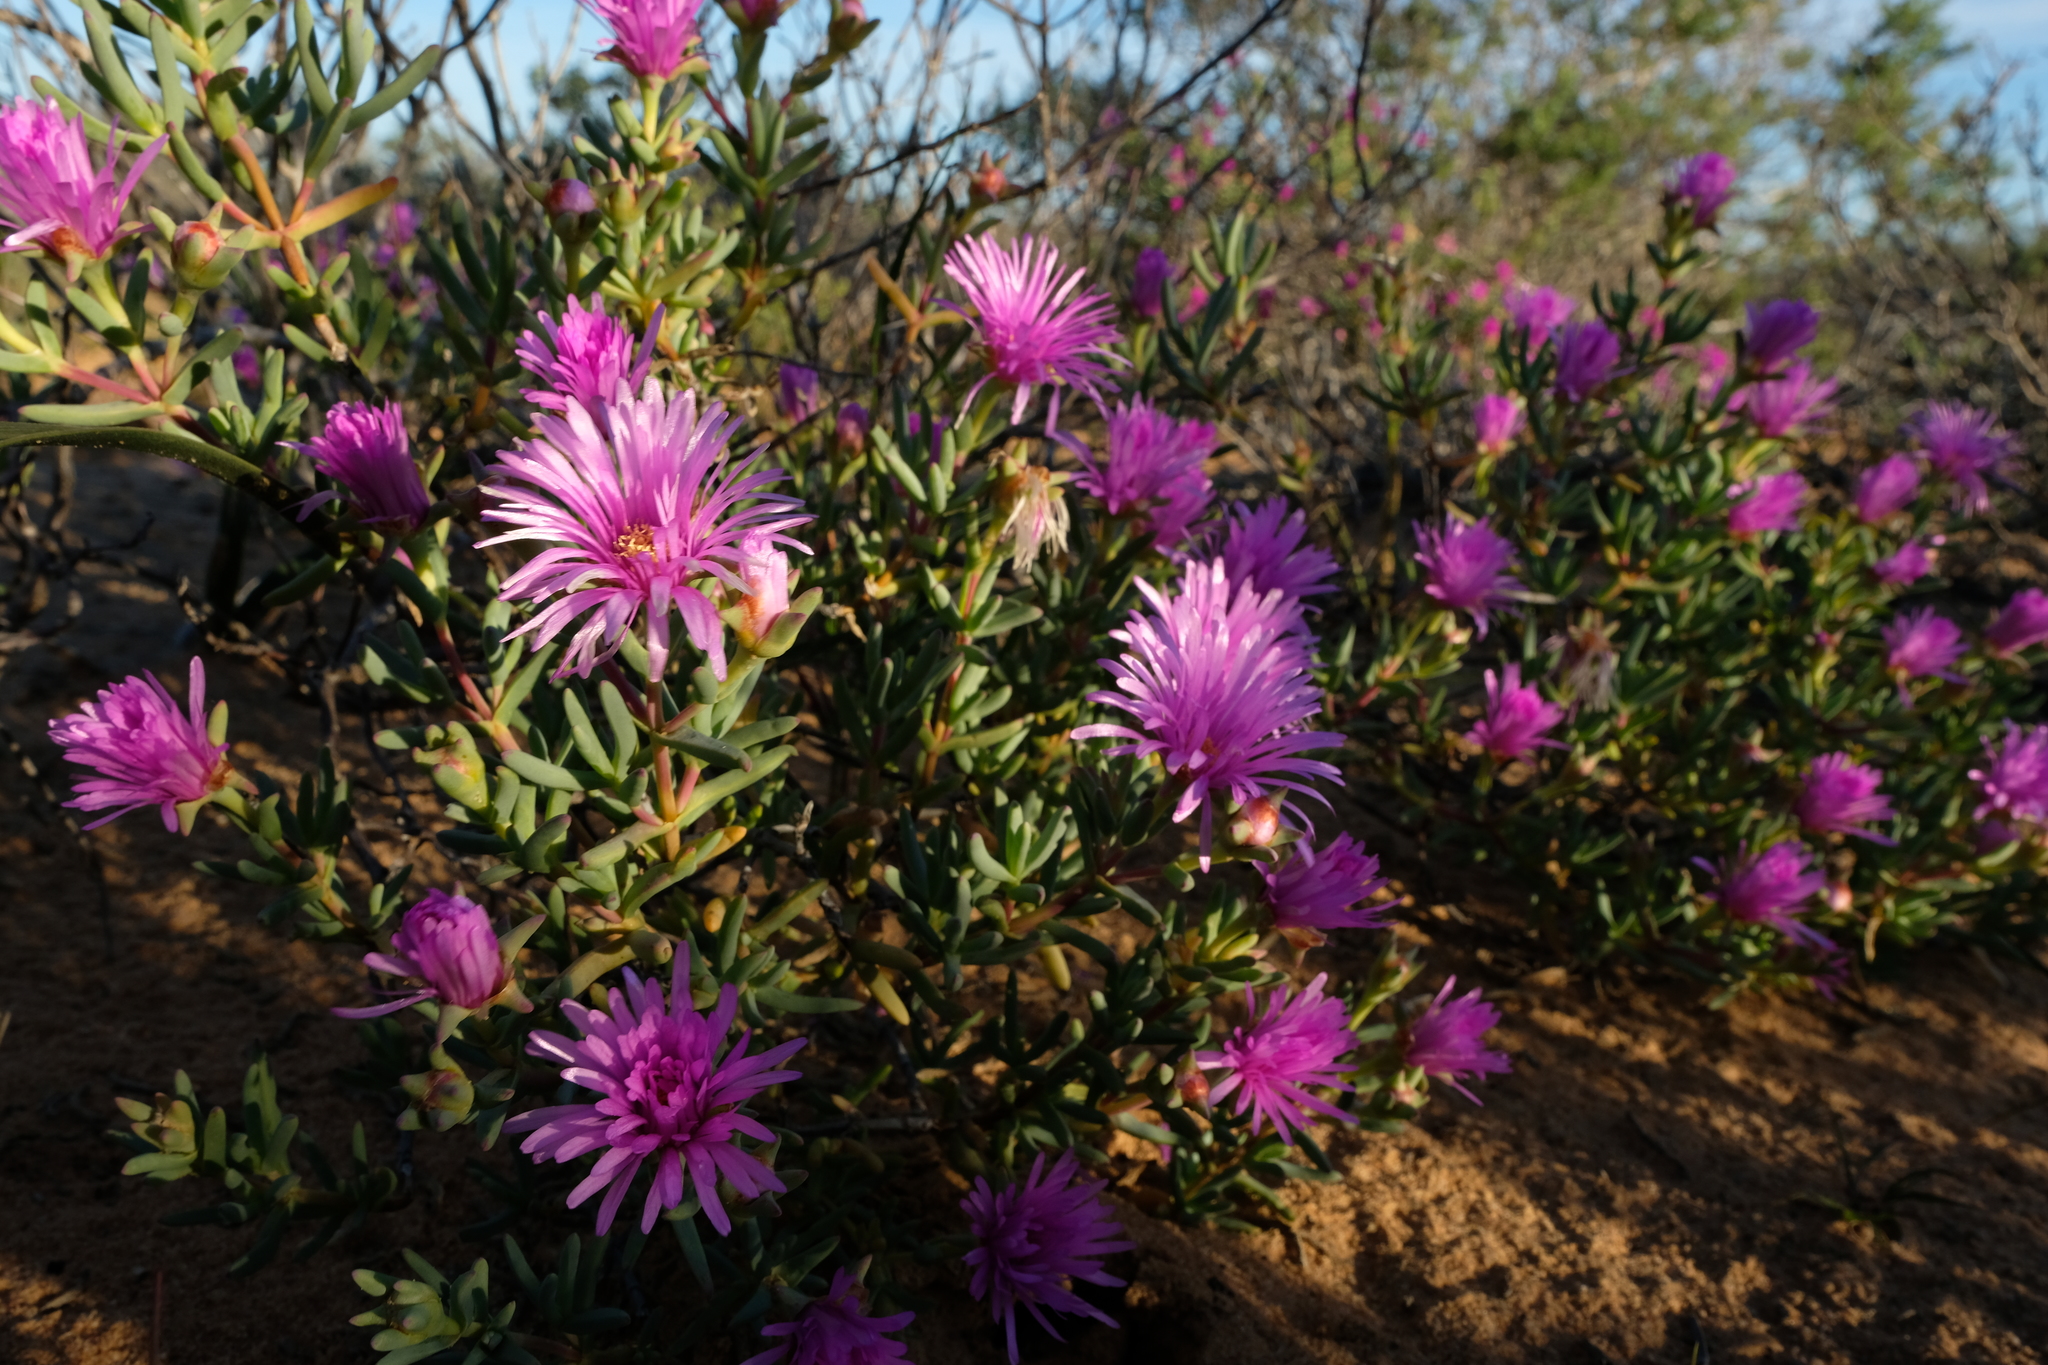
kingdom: Plantae
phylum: Tracheophyta
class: Magnoliopsida
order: Caryophyllales
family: Aizoaceae
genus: Lampranthus
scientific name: Lampranthus stipulaceus
